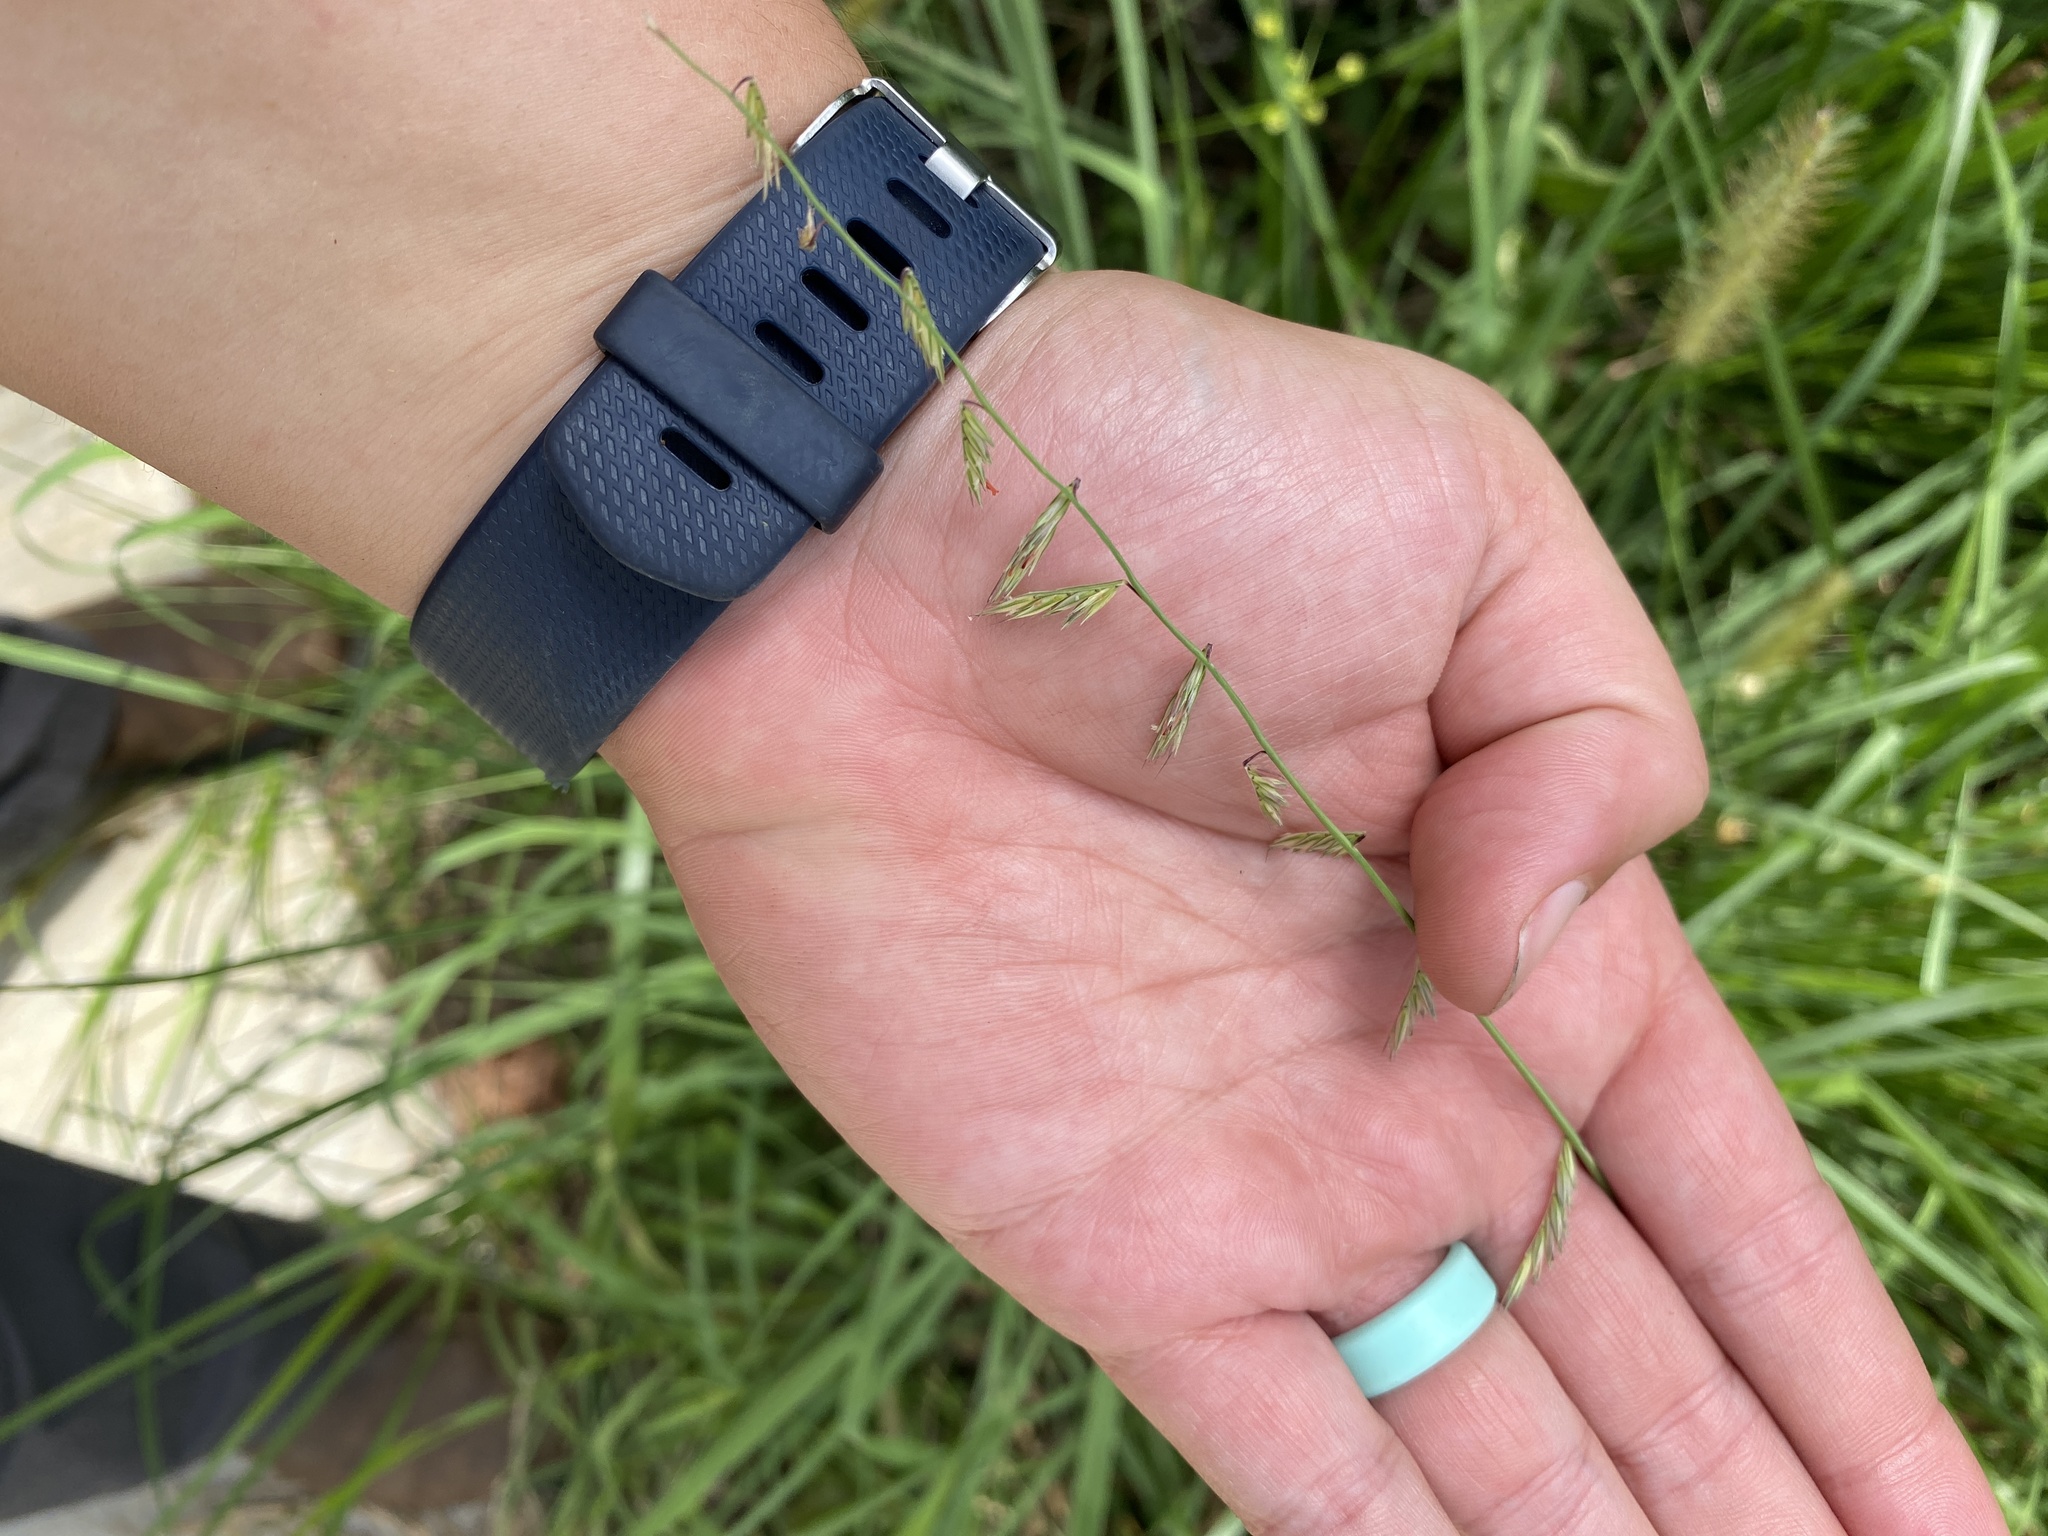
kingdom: Plantae
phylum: Tracheophyta
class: Liliopsida
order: Poales
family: Poaceae
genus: Bouteloua
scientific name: Bouteloua curtipendula
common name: Side-oats grama
